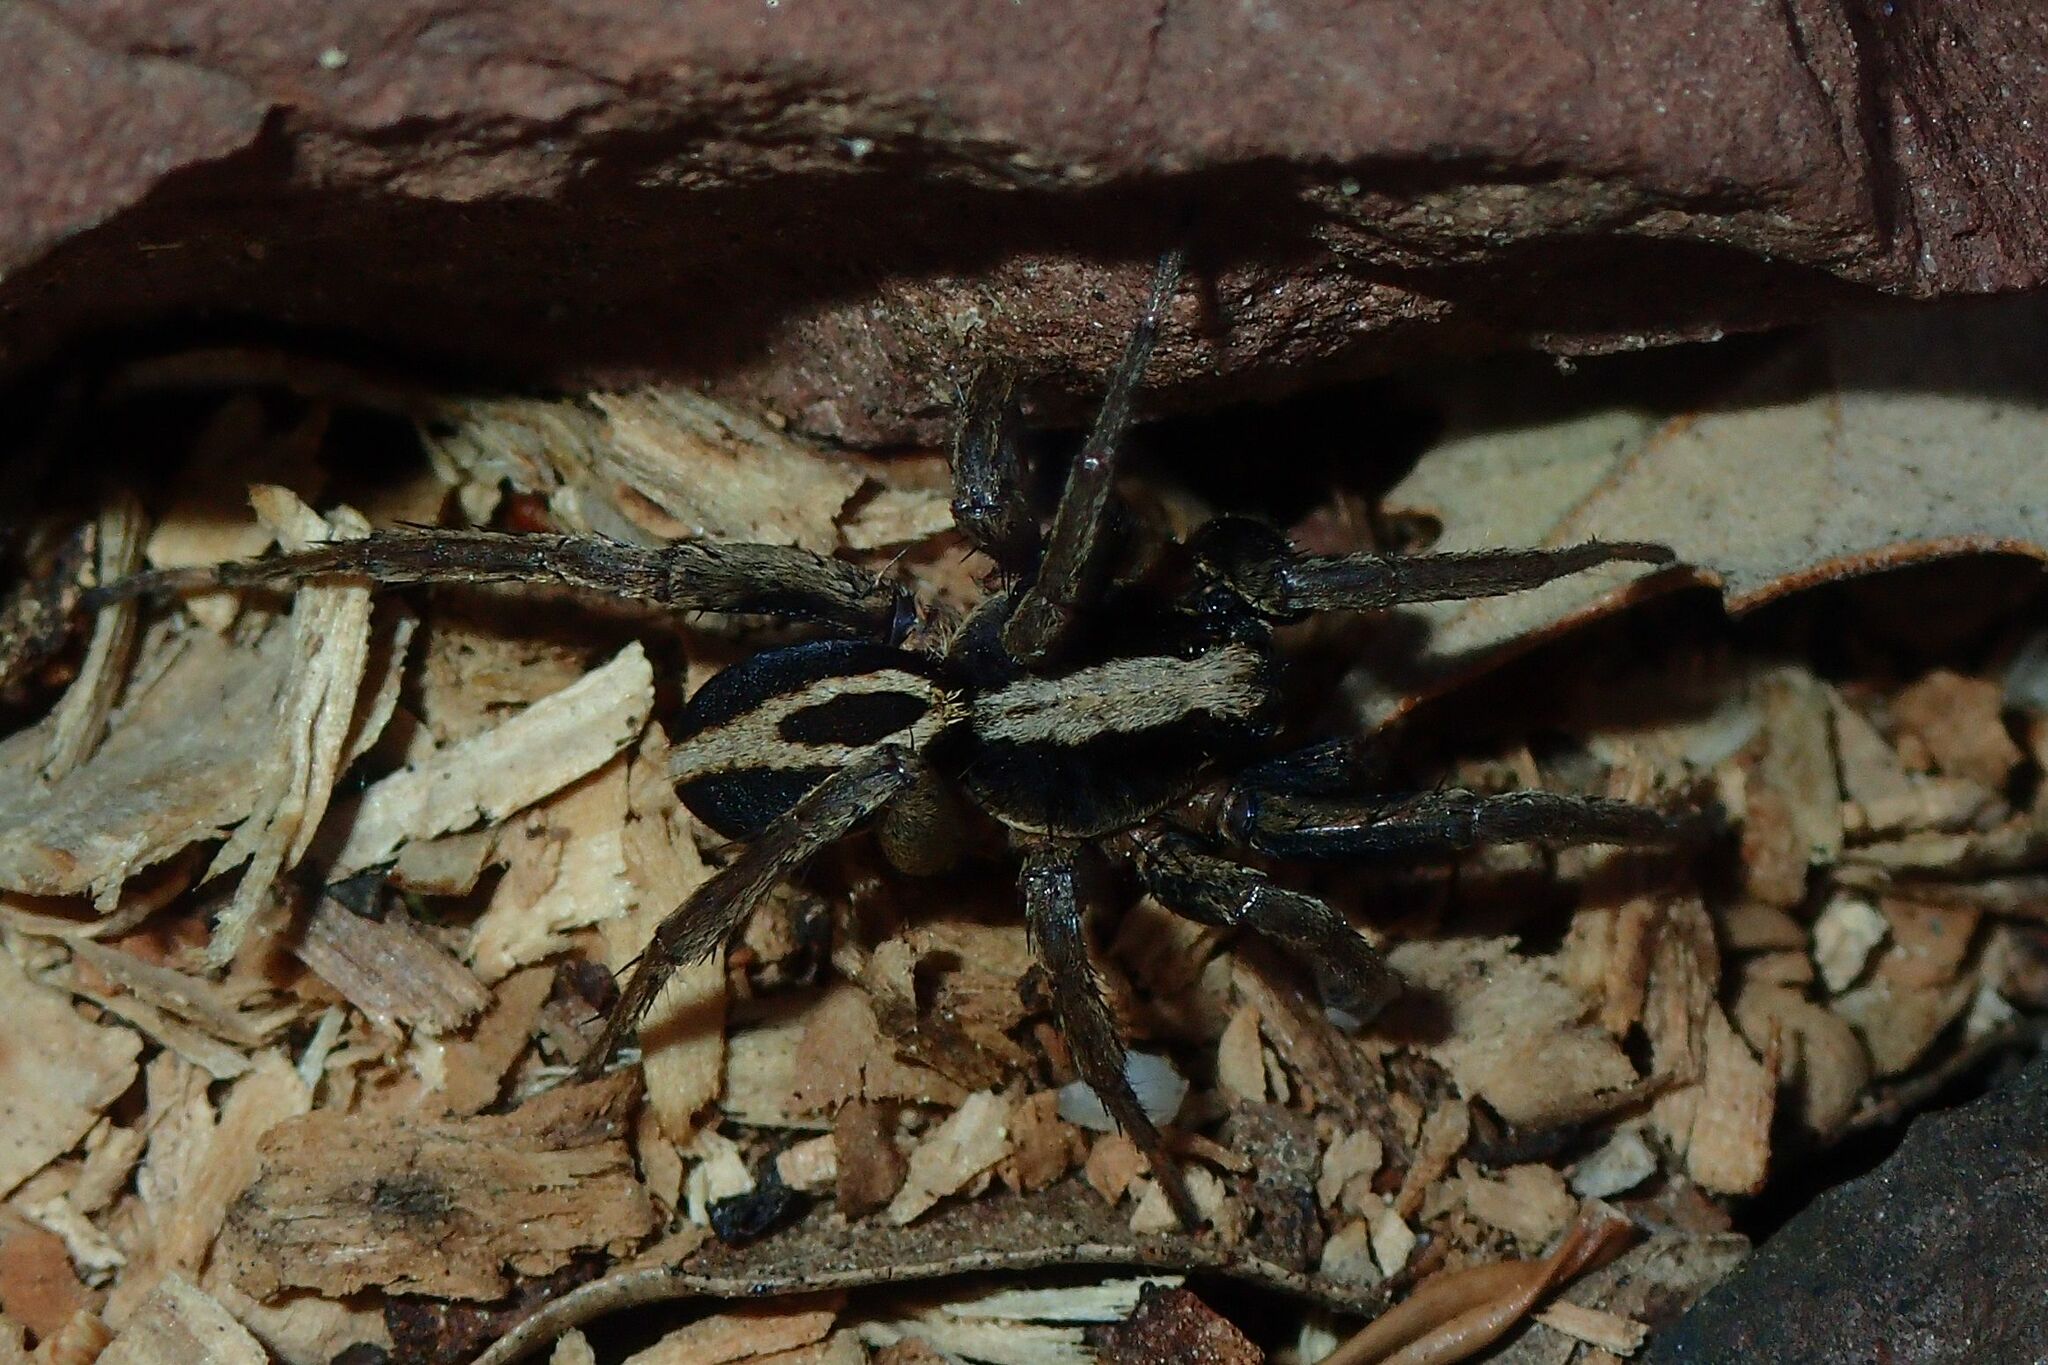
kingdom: Animalia
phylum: Arthropoda
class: Arachnida
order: Araneae
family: Lycosidae
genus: Alopecosa
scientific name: Alopecosa albofasciata
